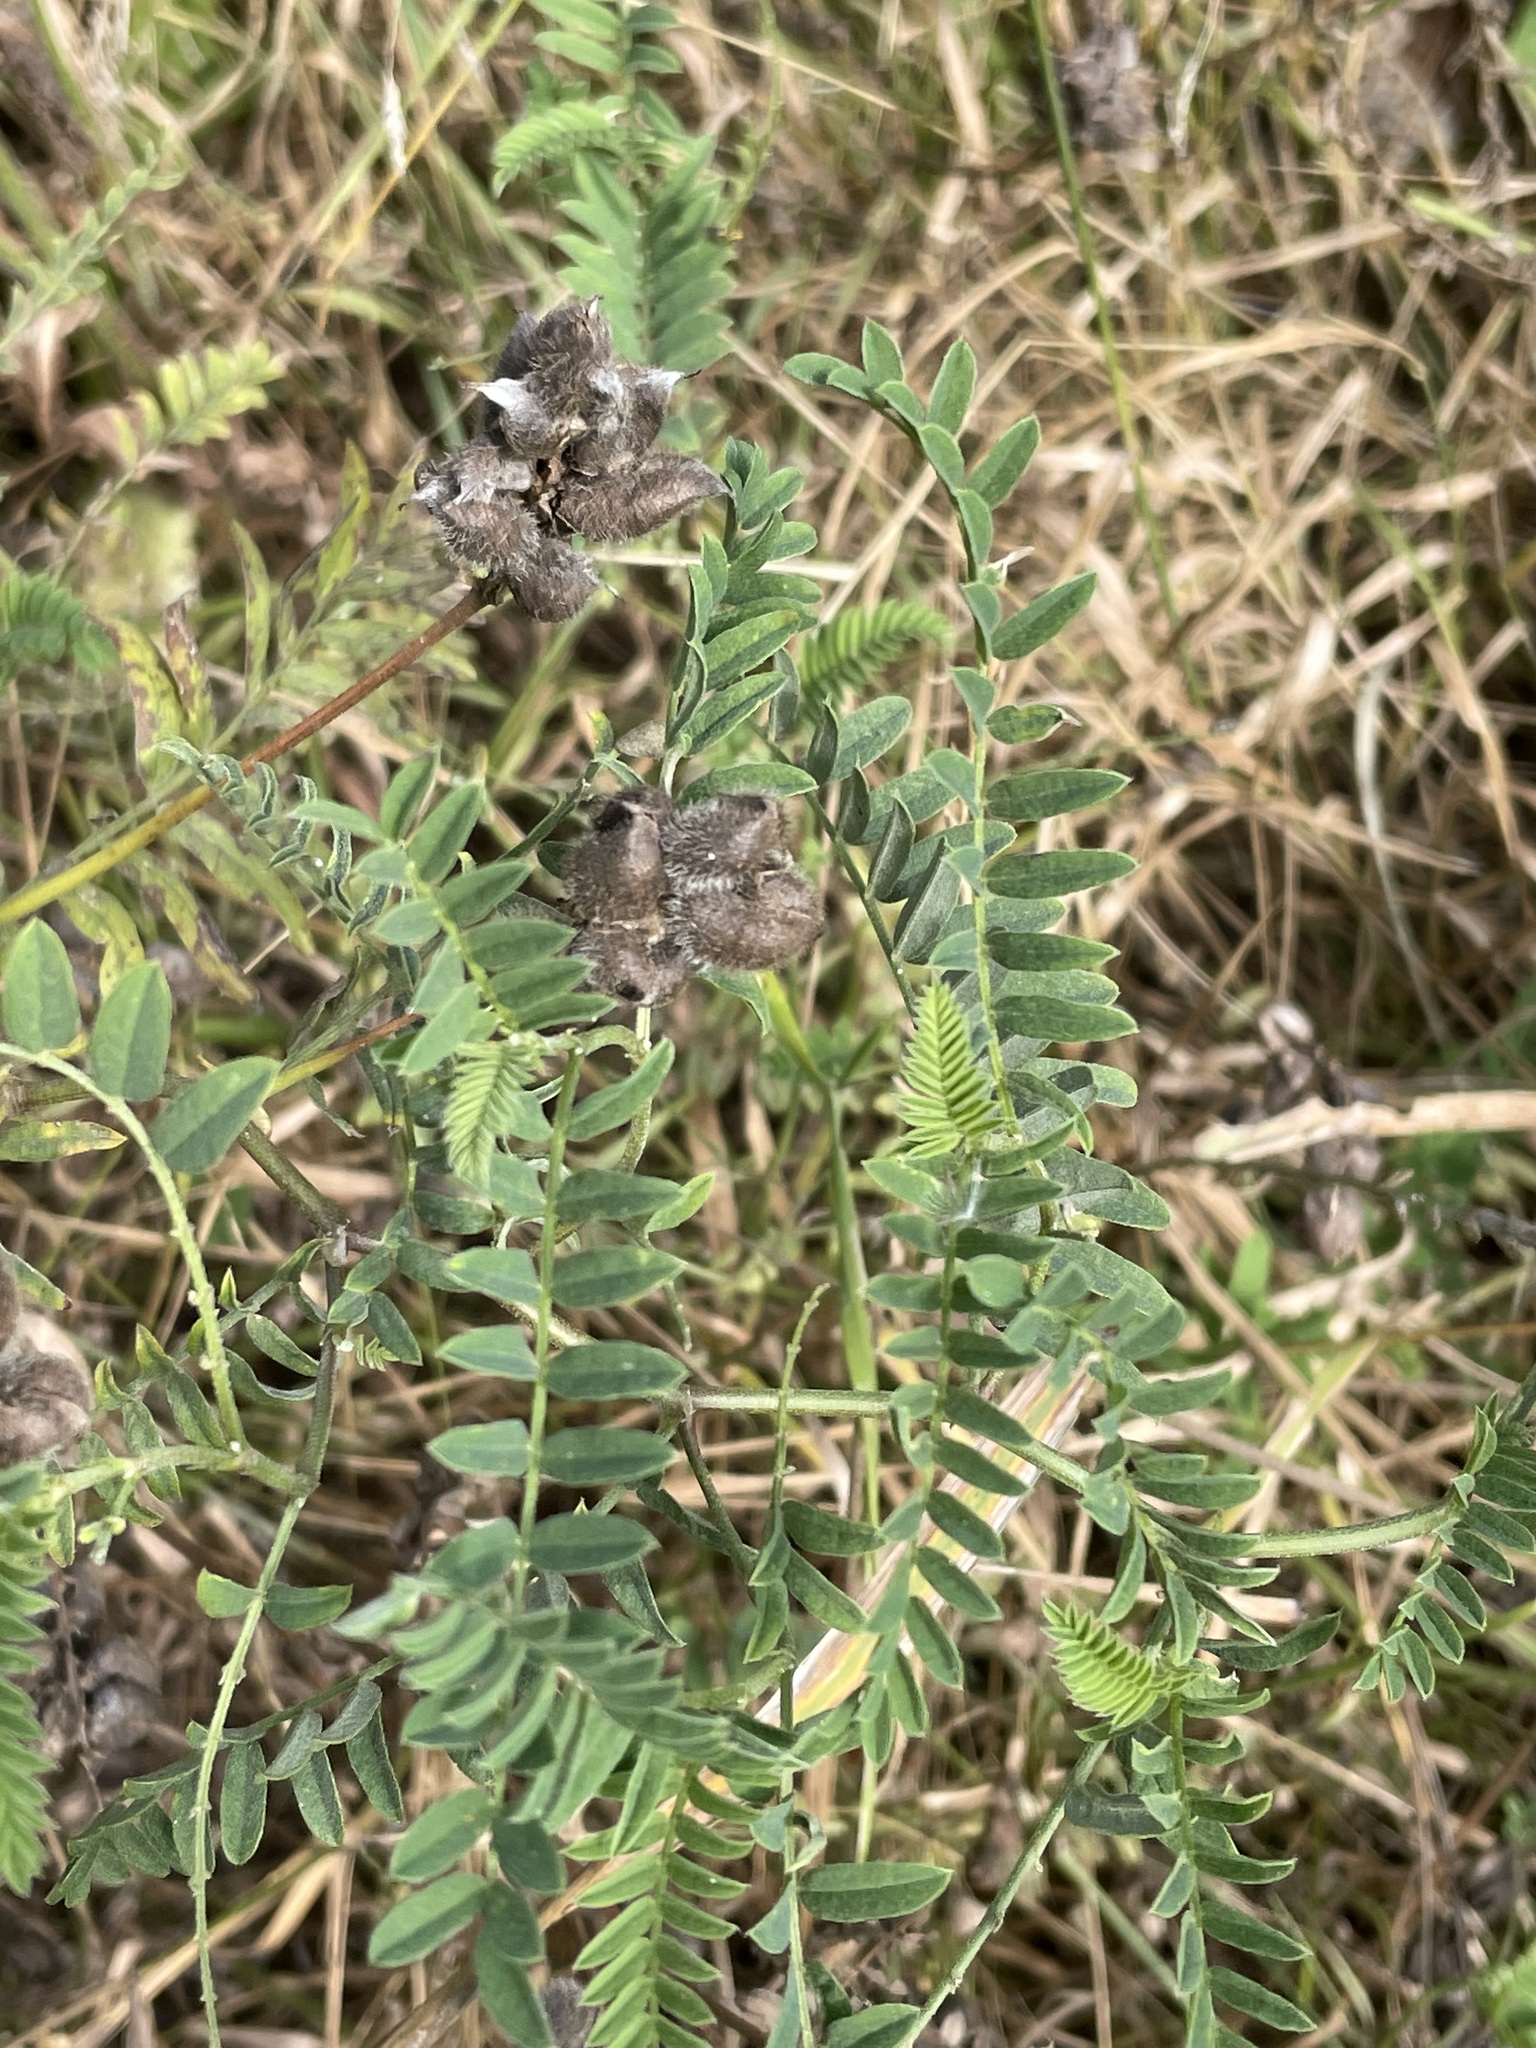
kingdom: Plantae
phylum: Tracheophyta
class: Magnoliopsida
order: Fabales
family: Fabaceae
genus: Astragalus
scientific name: Astragalus cicer
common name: Chick-pea milk-vetch
